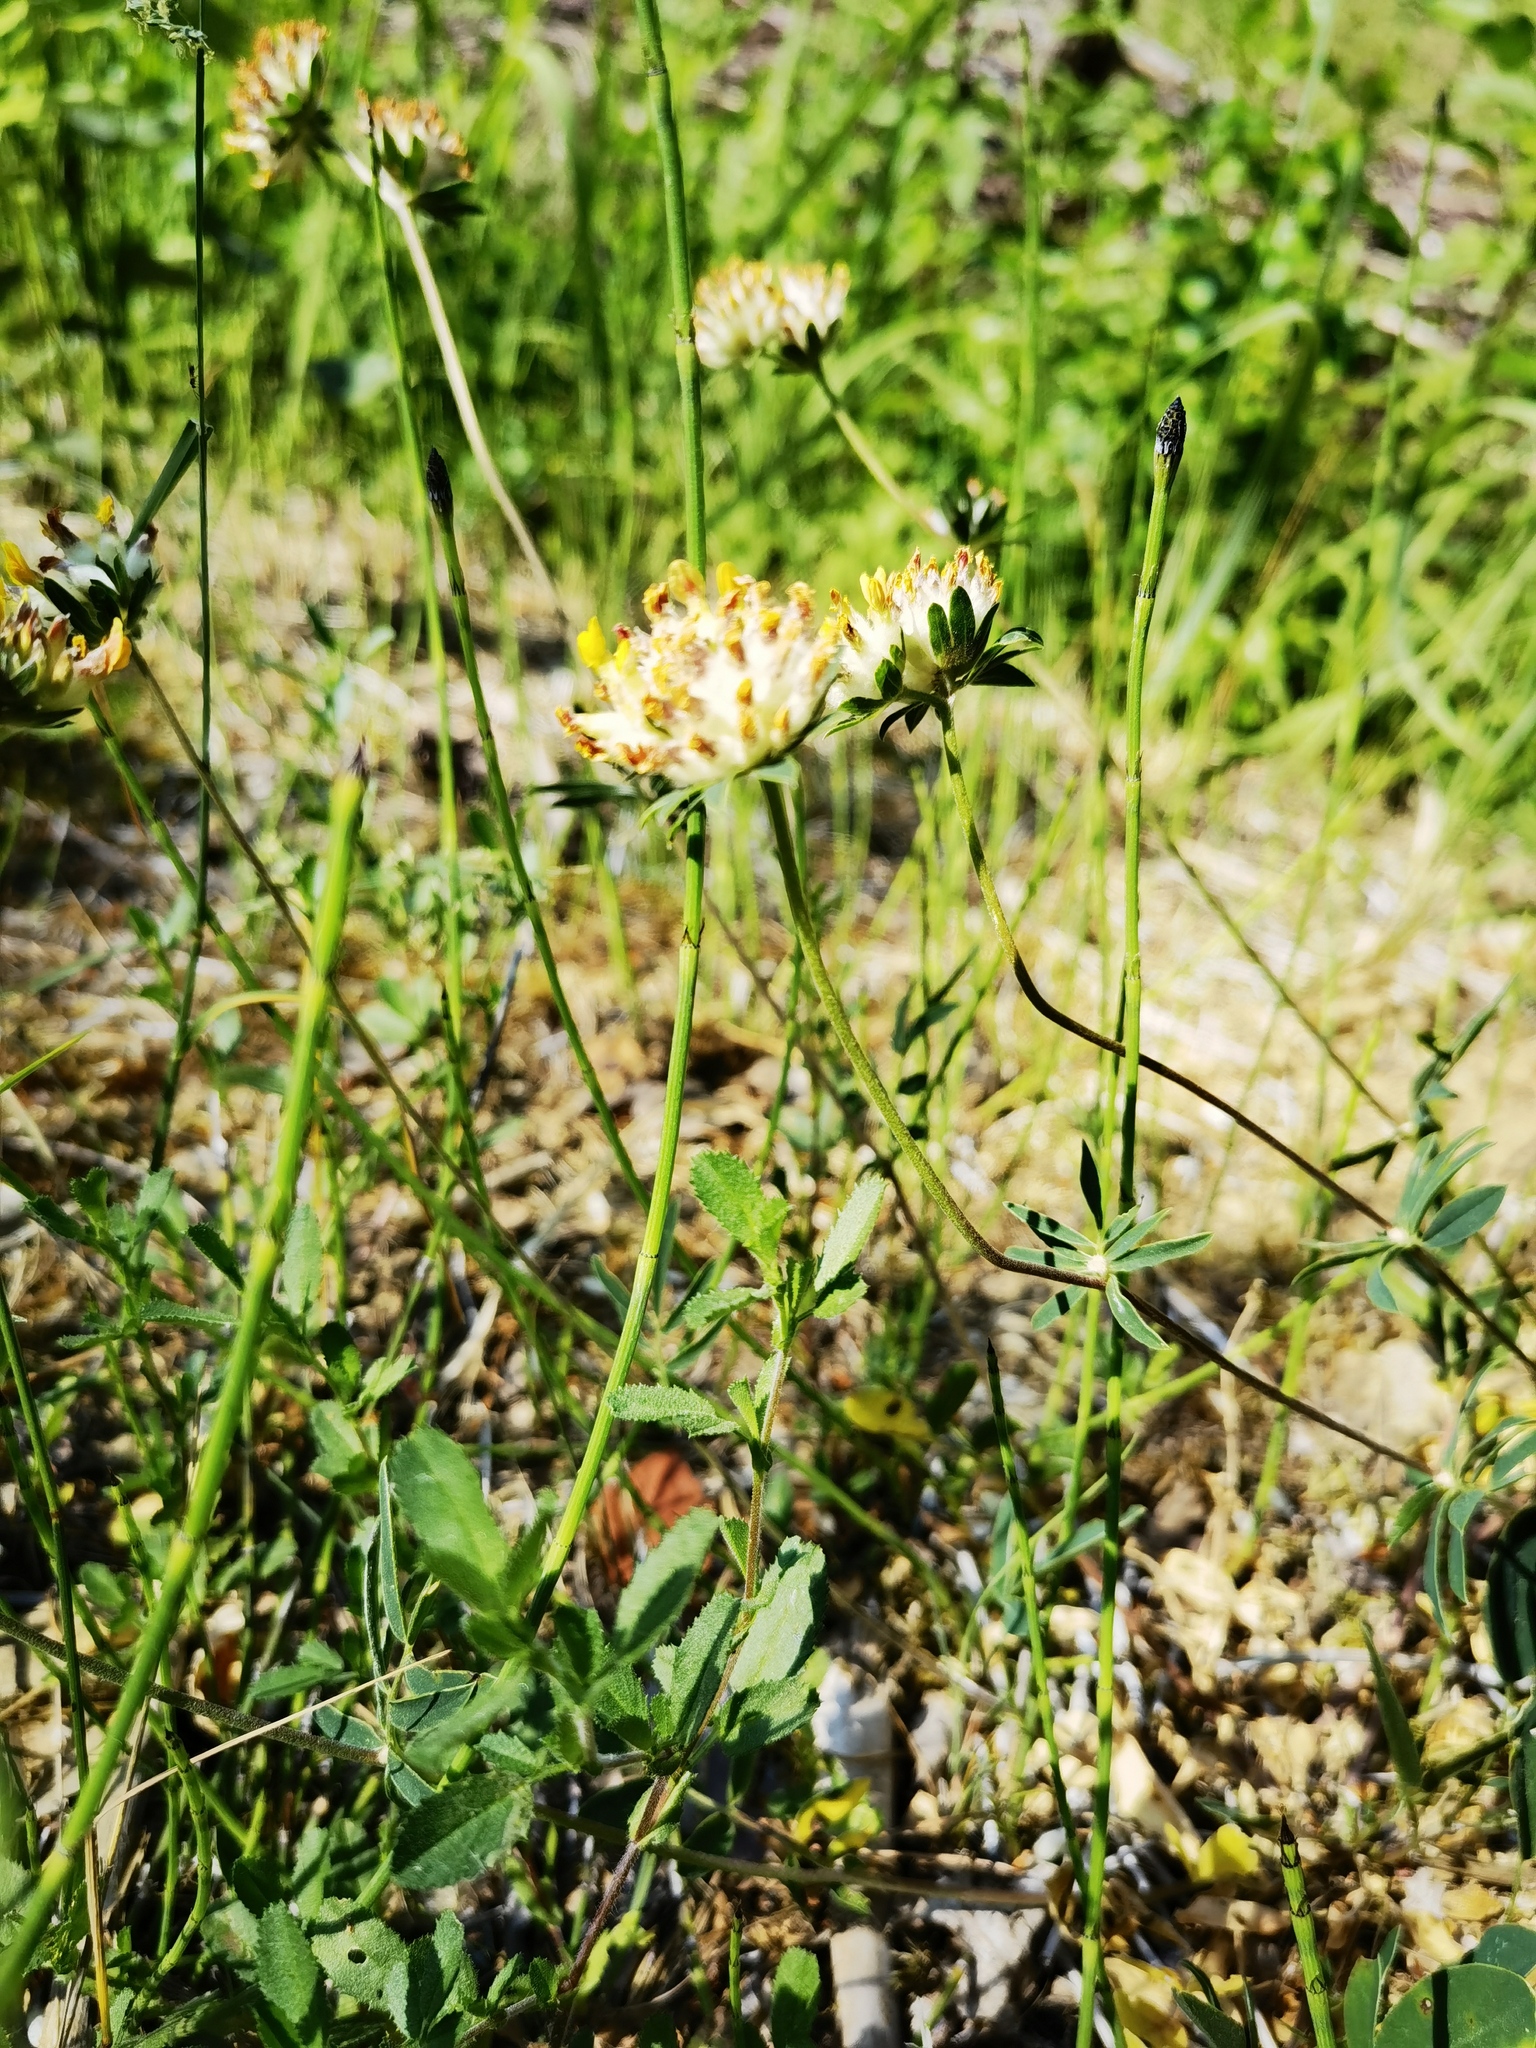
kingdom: Plantae
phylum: Tracheophyta
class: Magnoliopsida
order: Fabales
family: Fabaceae
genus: Anthyllis
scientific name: Anthyllis vulneraria
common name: Kidney vetch
